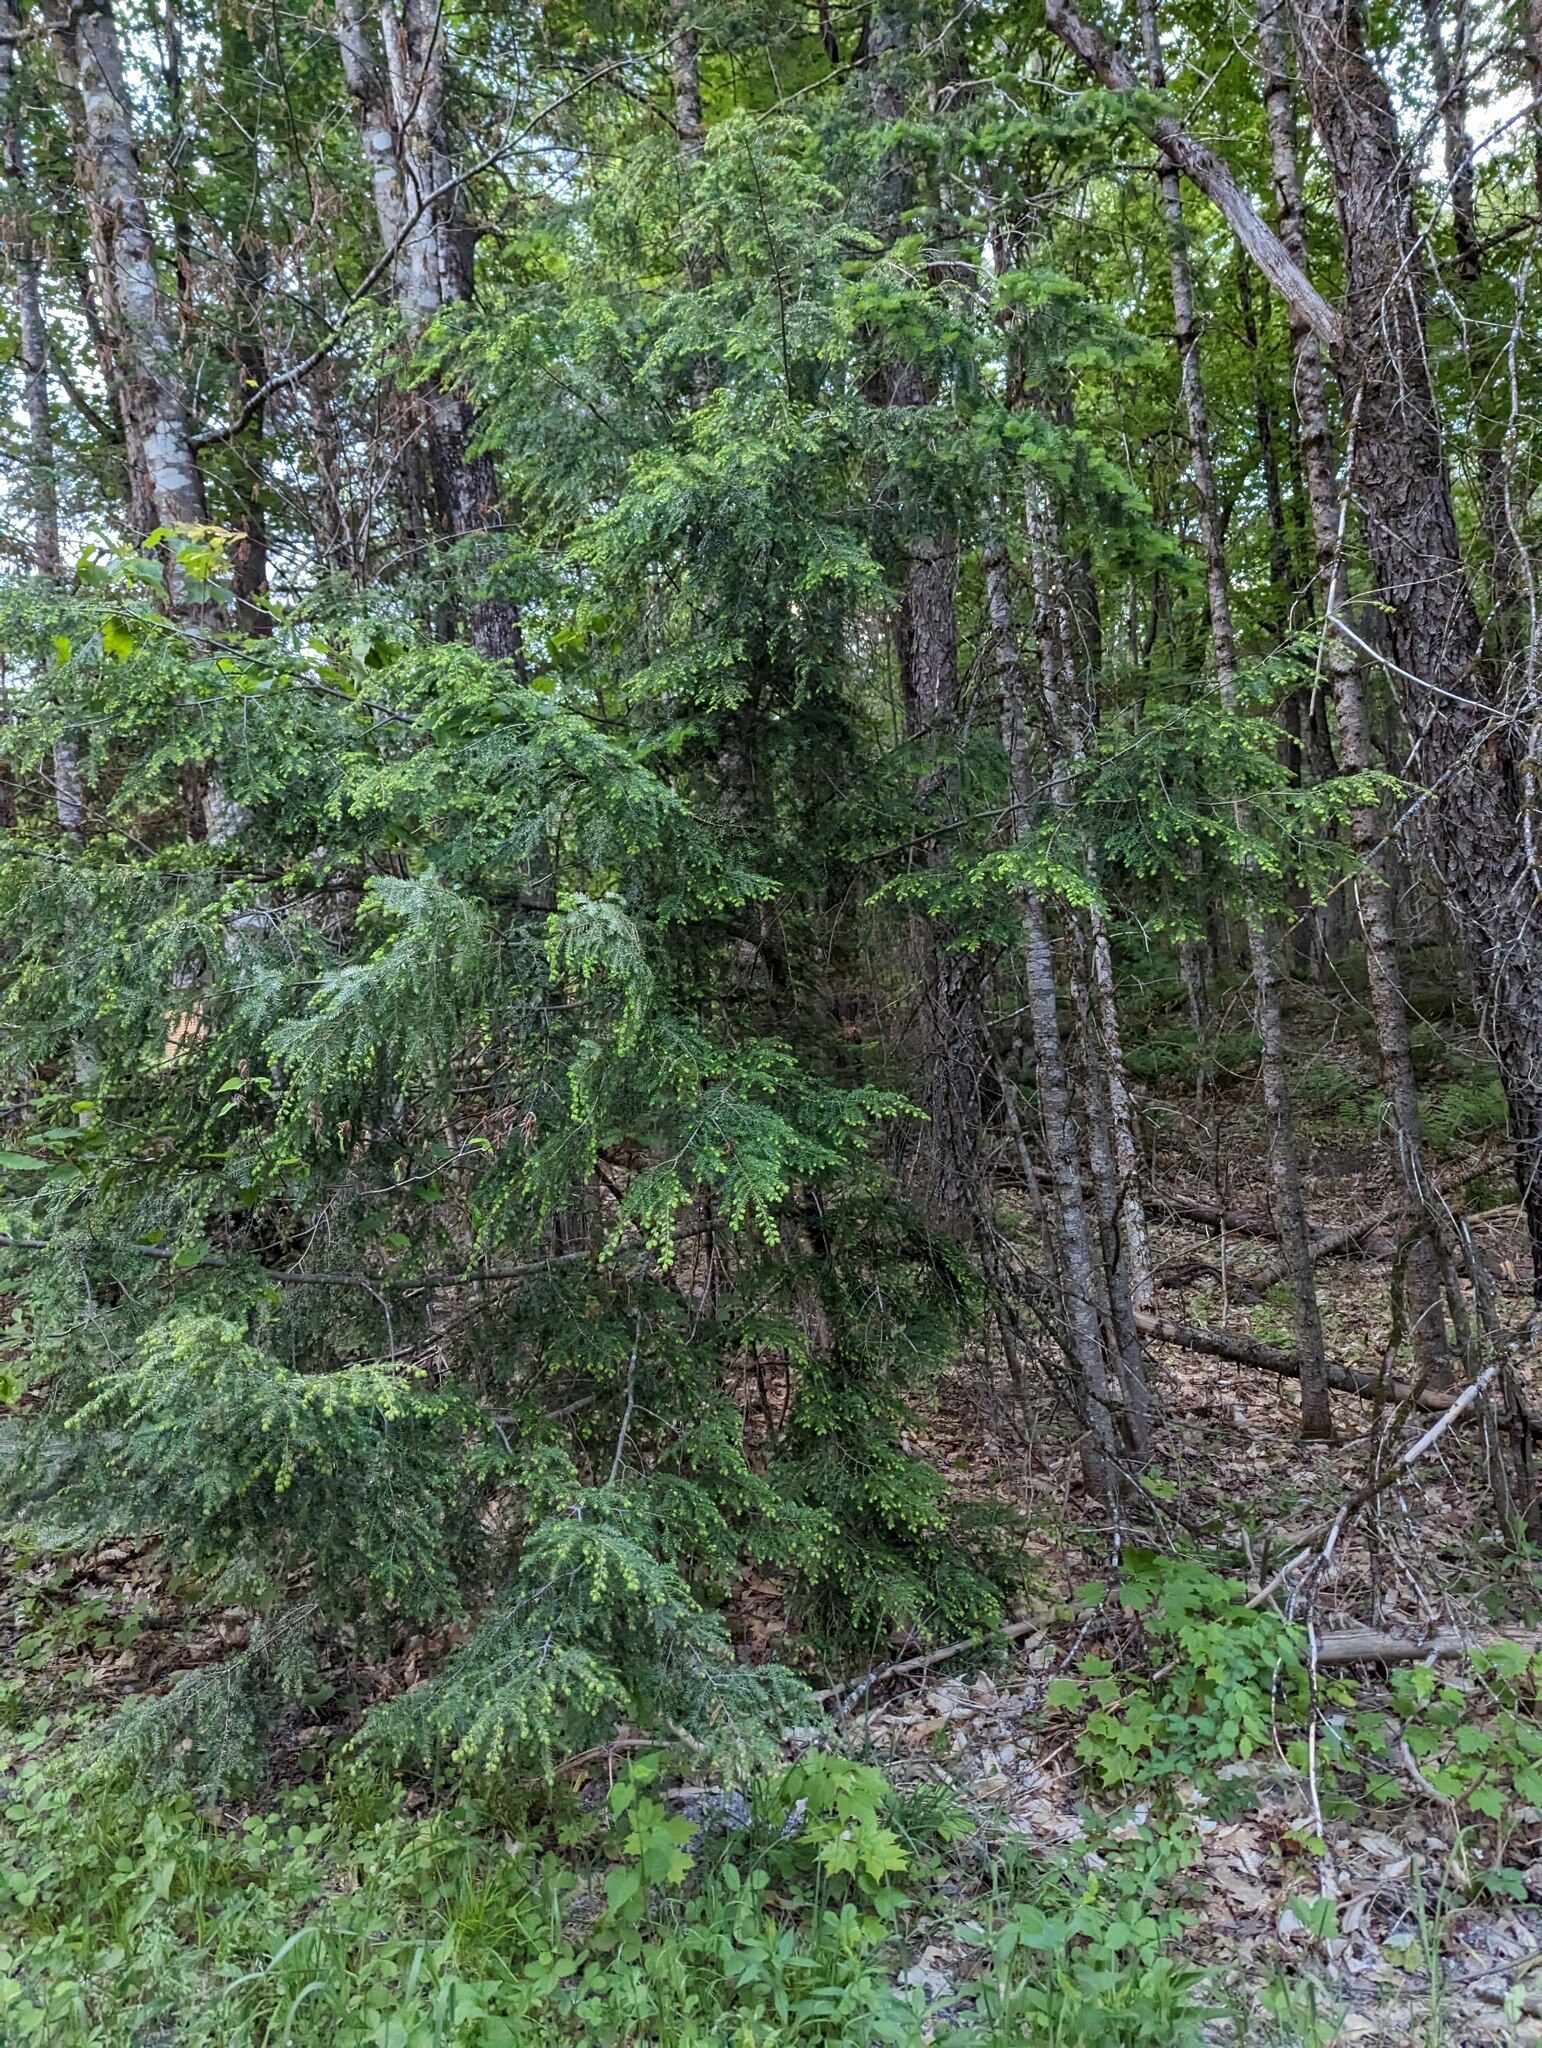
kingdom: Plantae
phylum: Tracheophyta
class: Pinopsida
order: Pinales
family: Pinaceae
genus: Tsuga
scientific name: Tsuga canadensis
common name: Eastern hemlock
